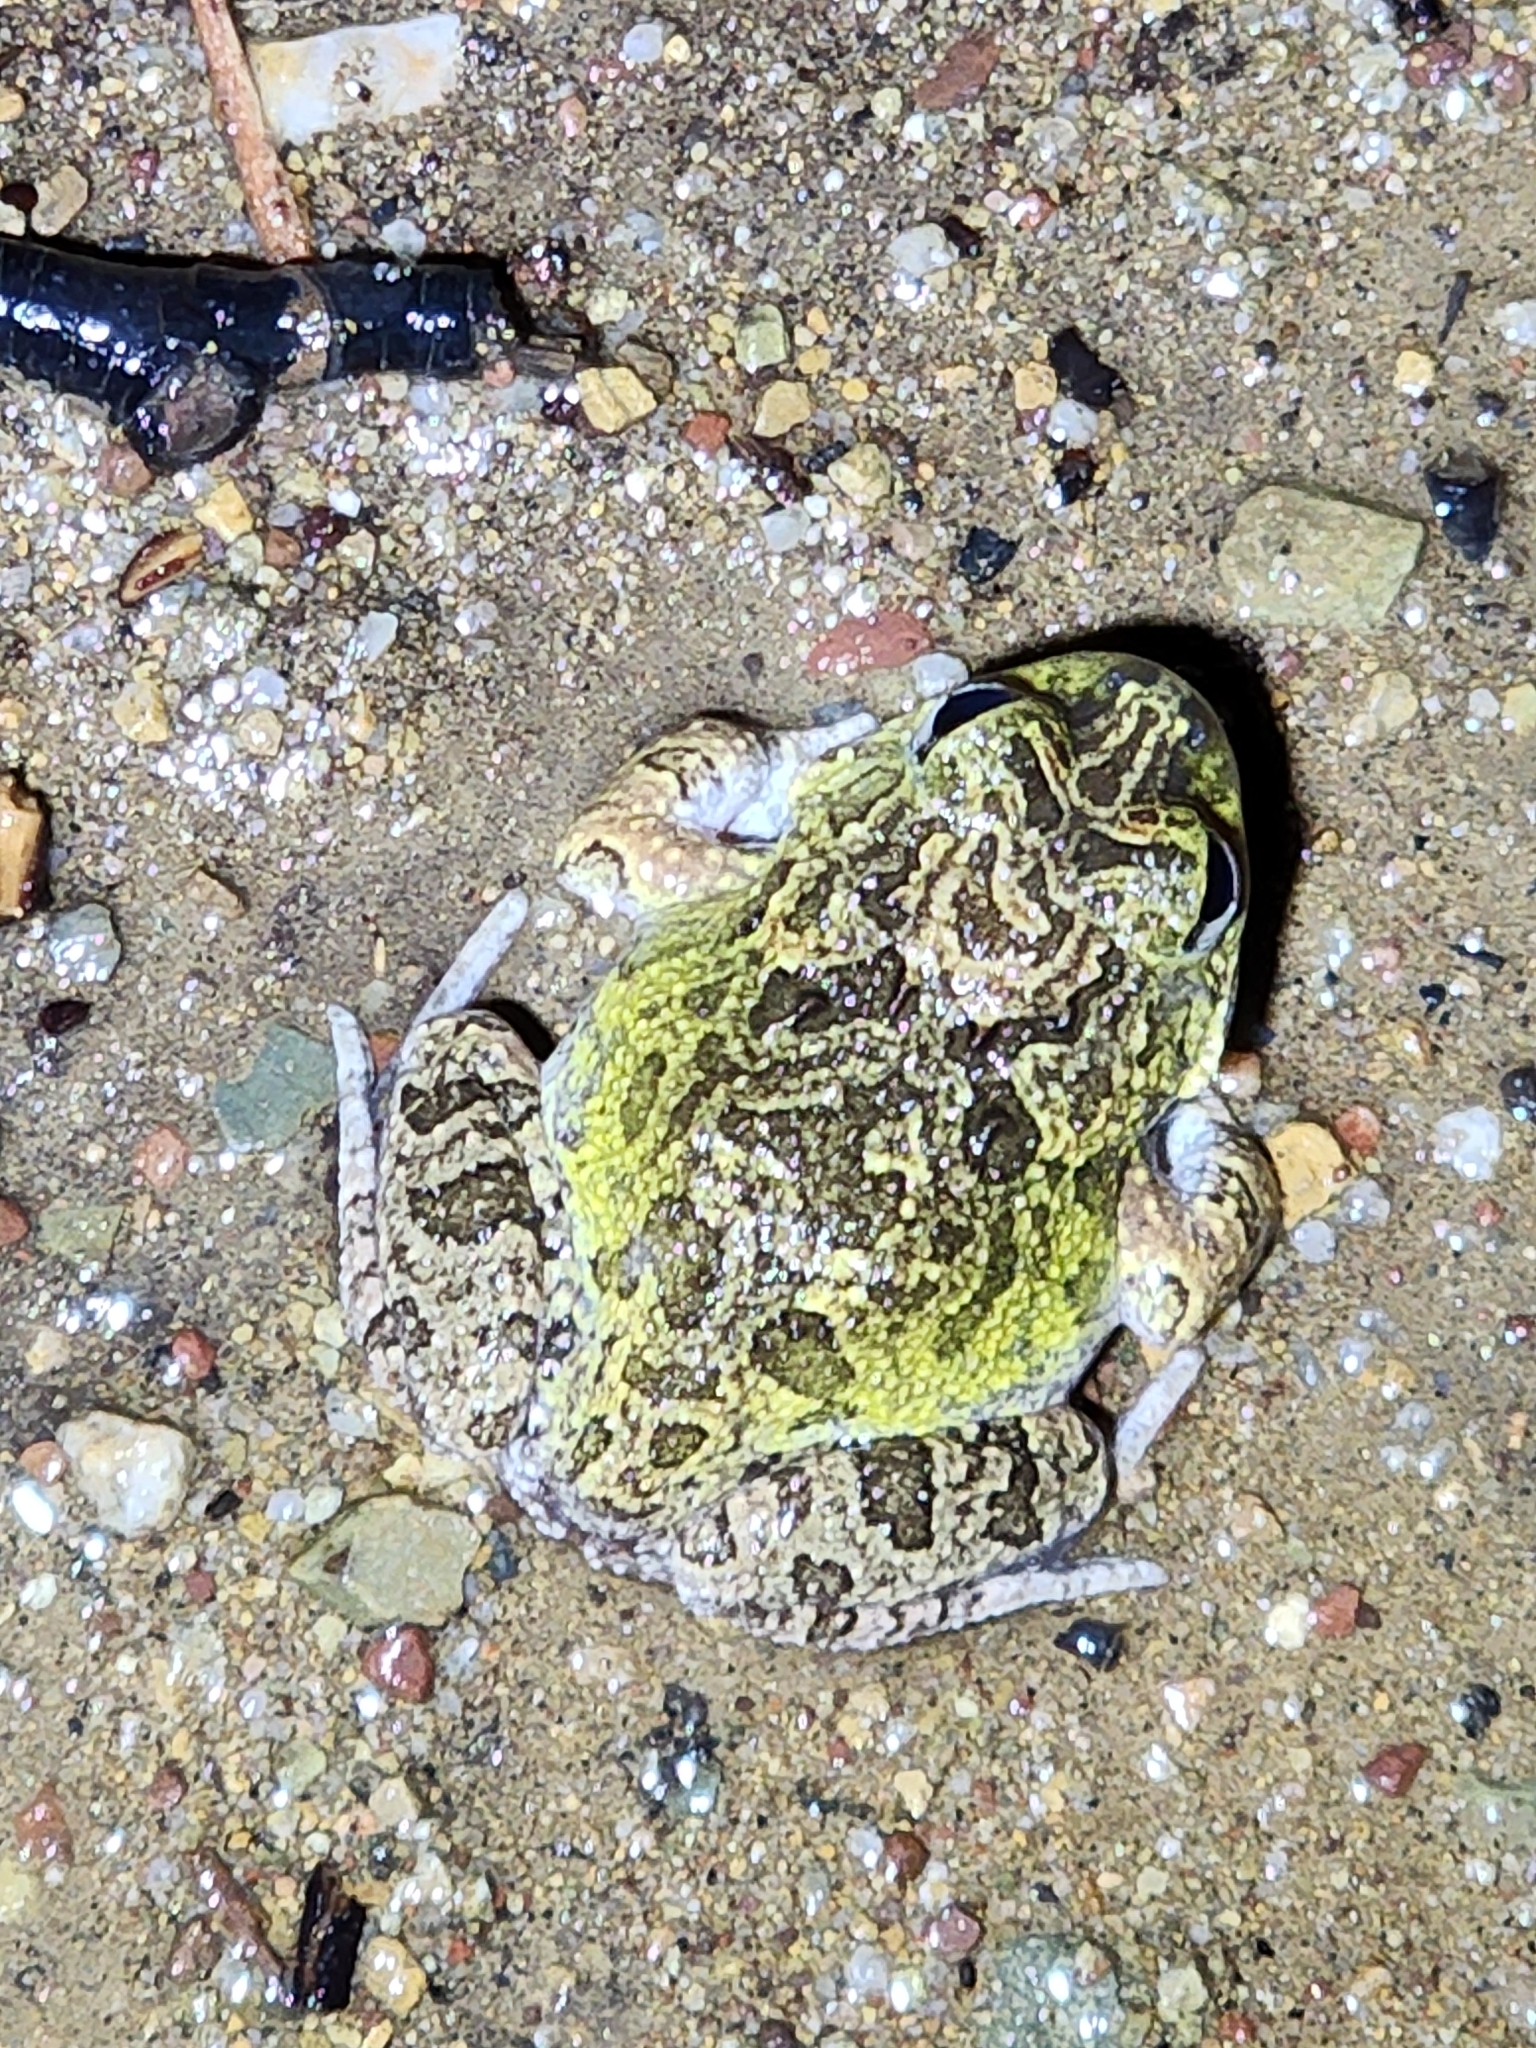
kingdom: Animalia
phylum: Chordata
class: Amphibia
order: Anura
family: Limnodynastidae
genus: Platyplectrum
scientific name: Platyplectrum ornatum
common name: Ornate burrowing frog
